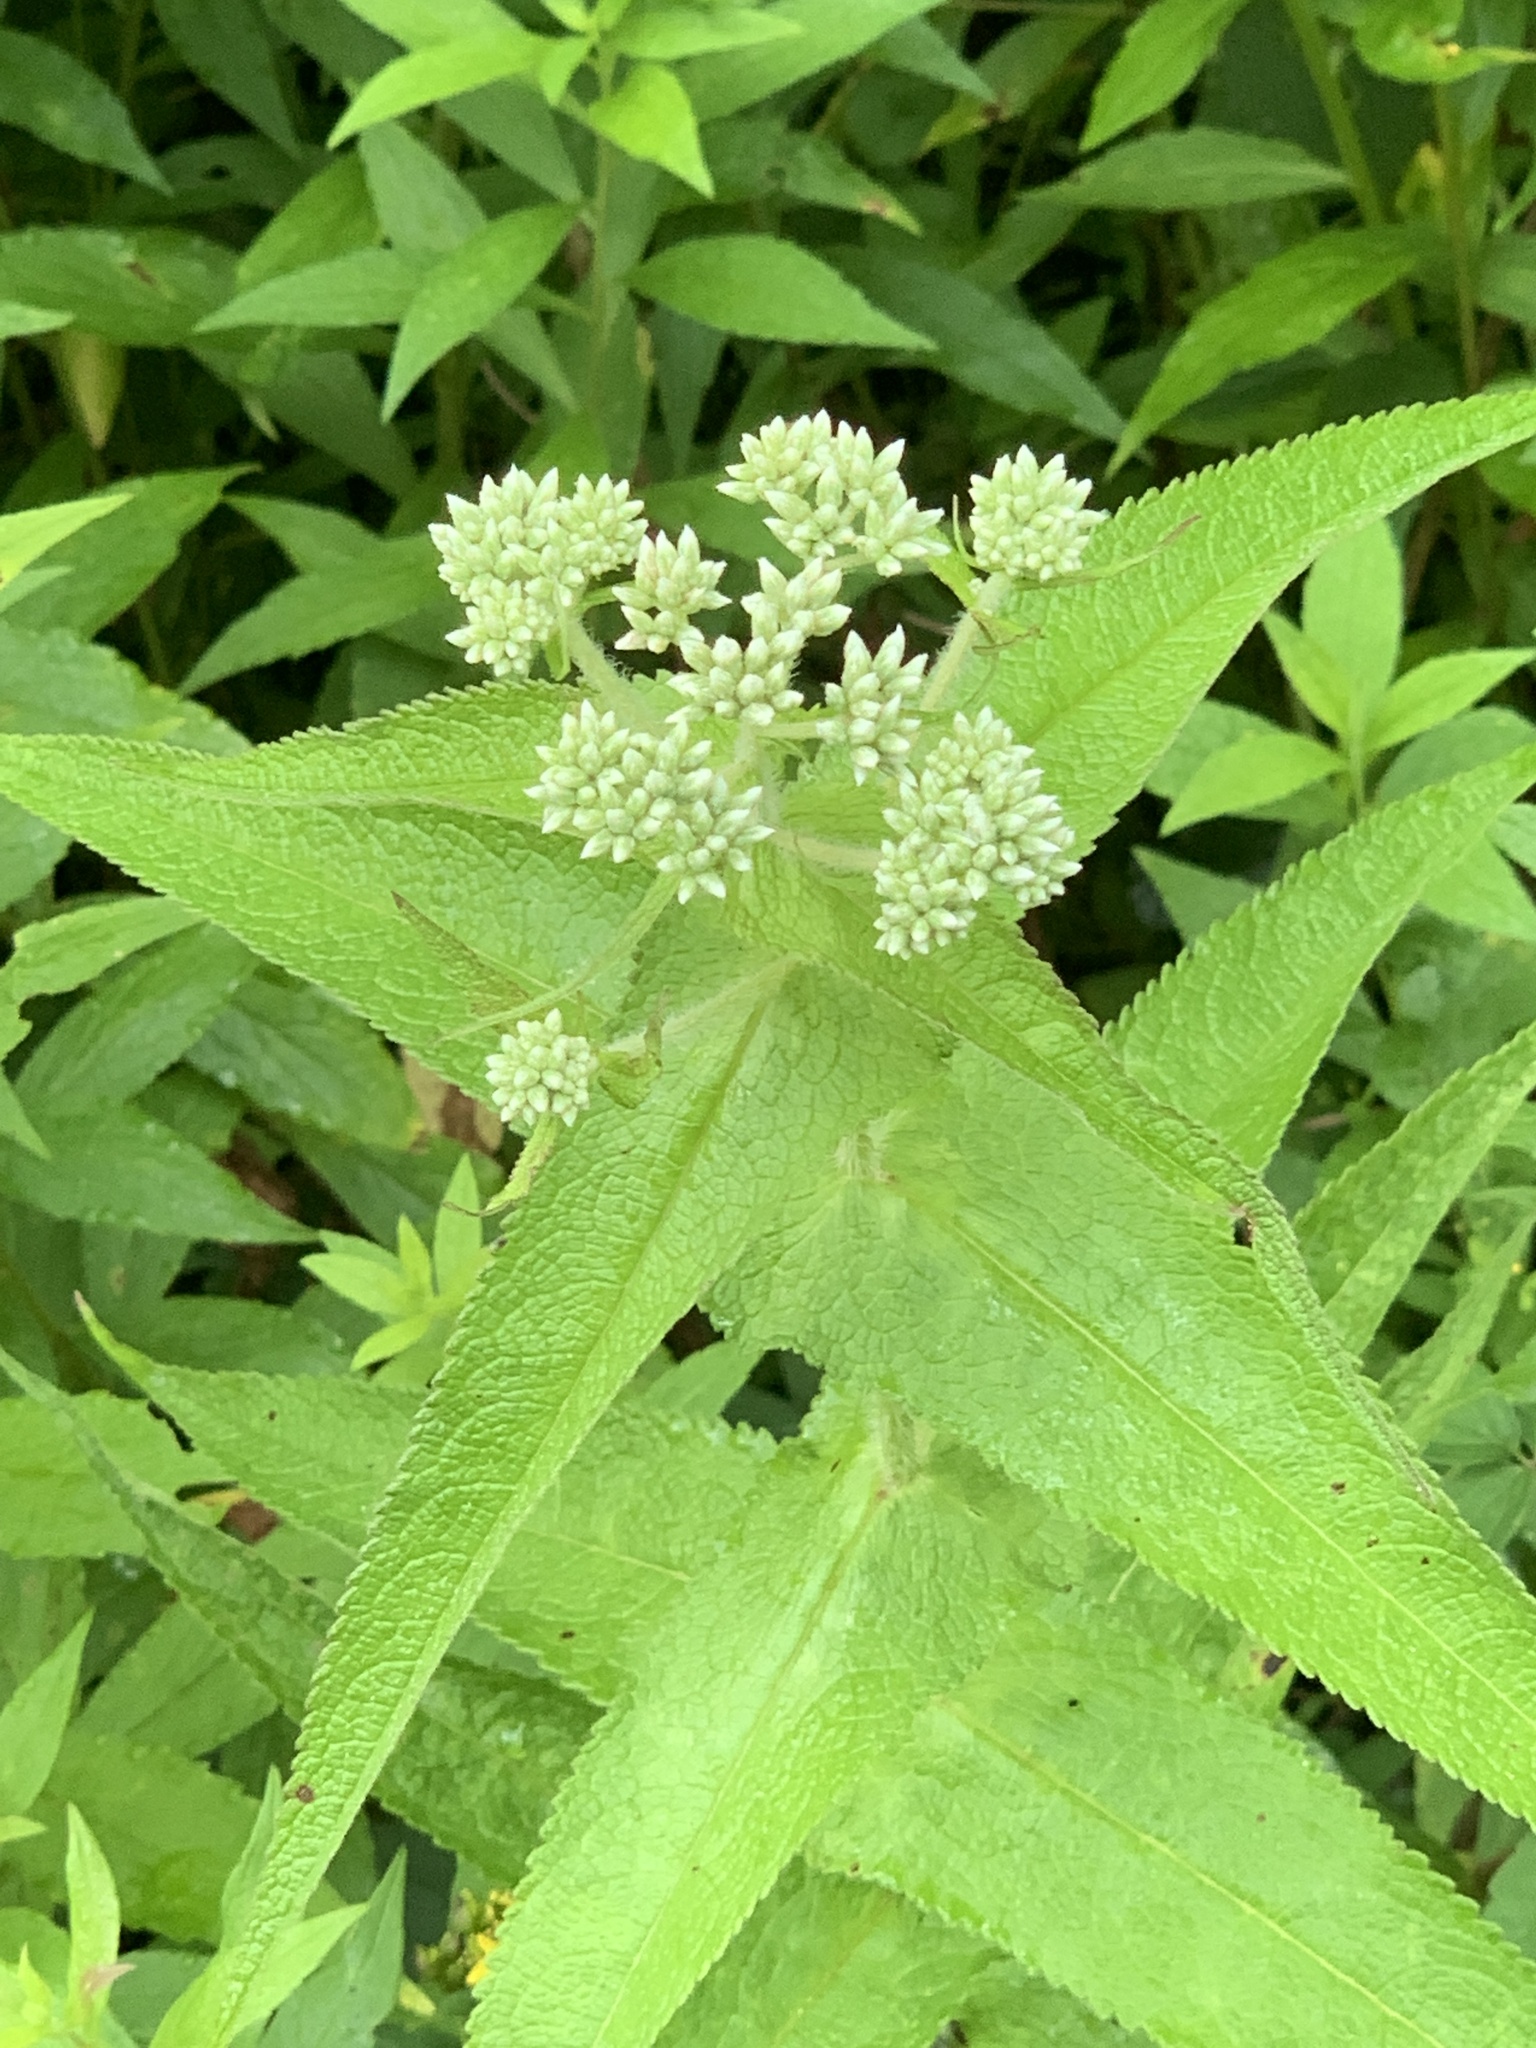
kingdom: Plantae
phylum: Tracheophyta
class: Magnoliopsida
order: Asterales
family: Asteraceae
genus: Eupatorium
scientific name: Eupatorium perfoliatum
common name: Boneset
